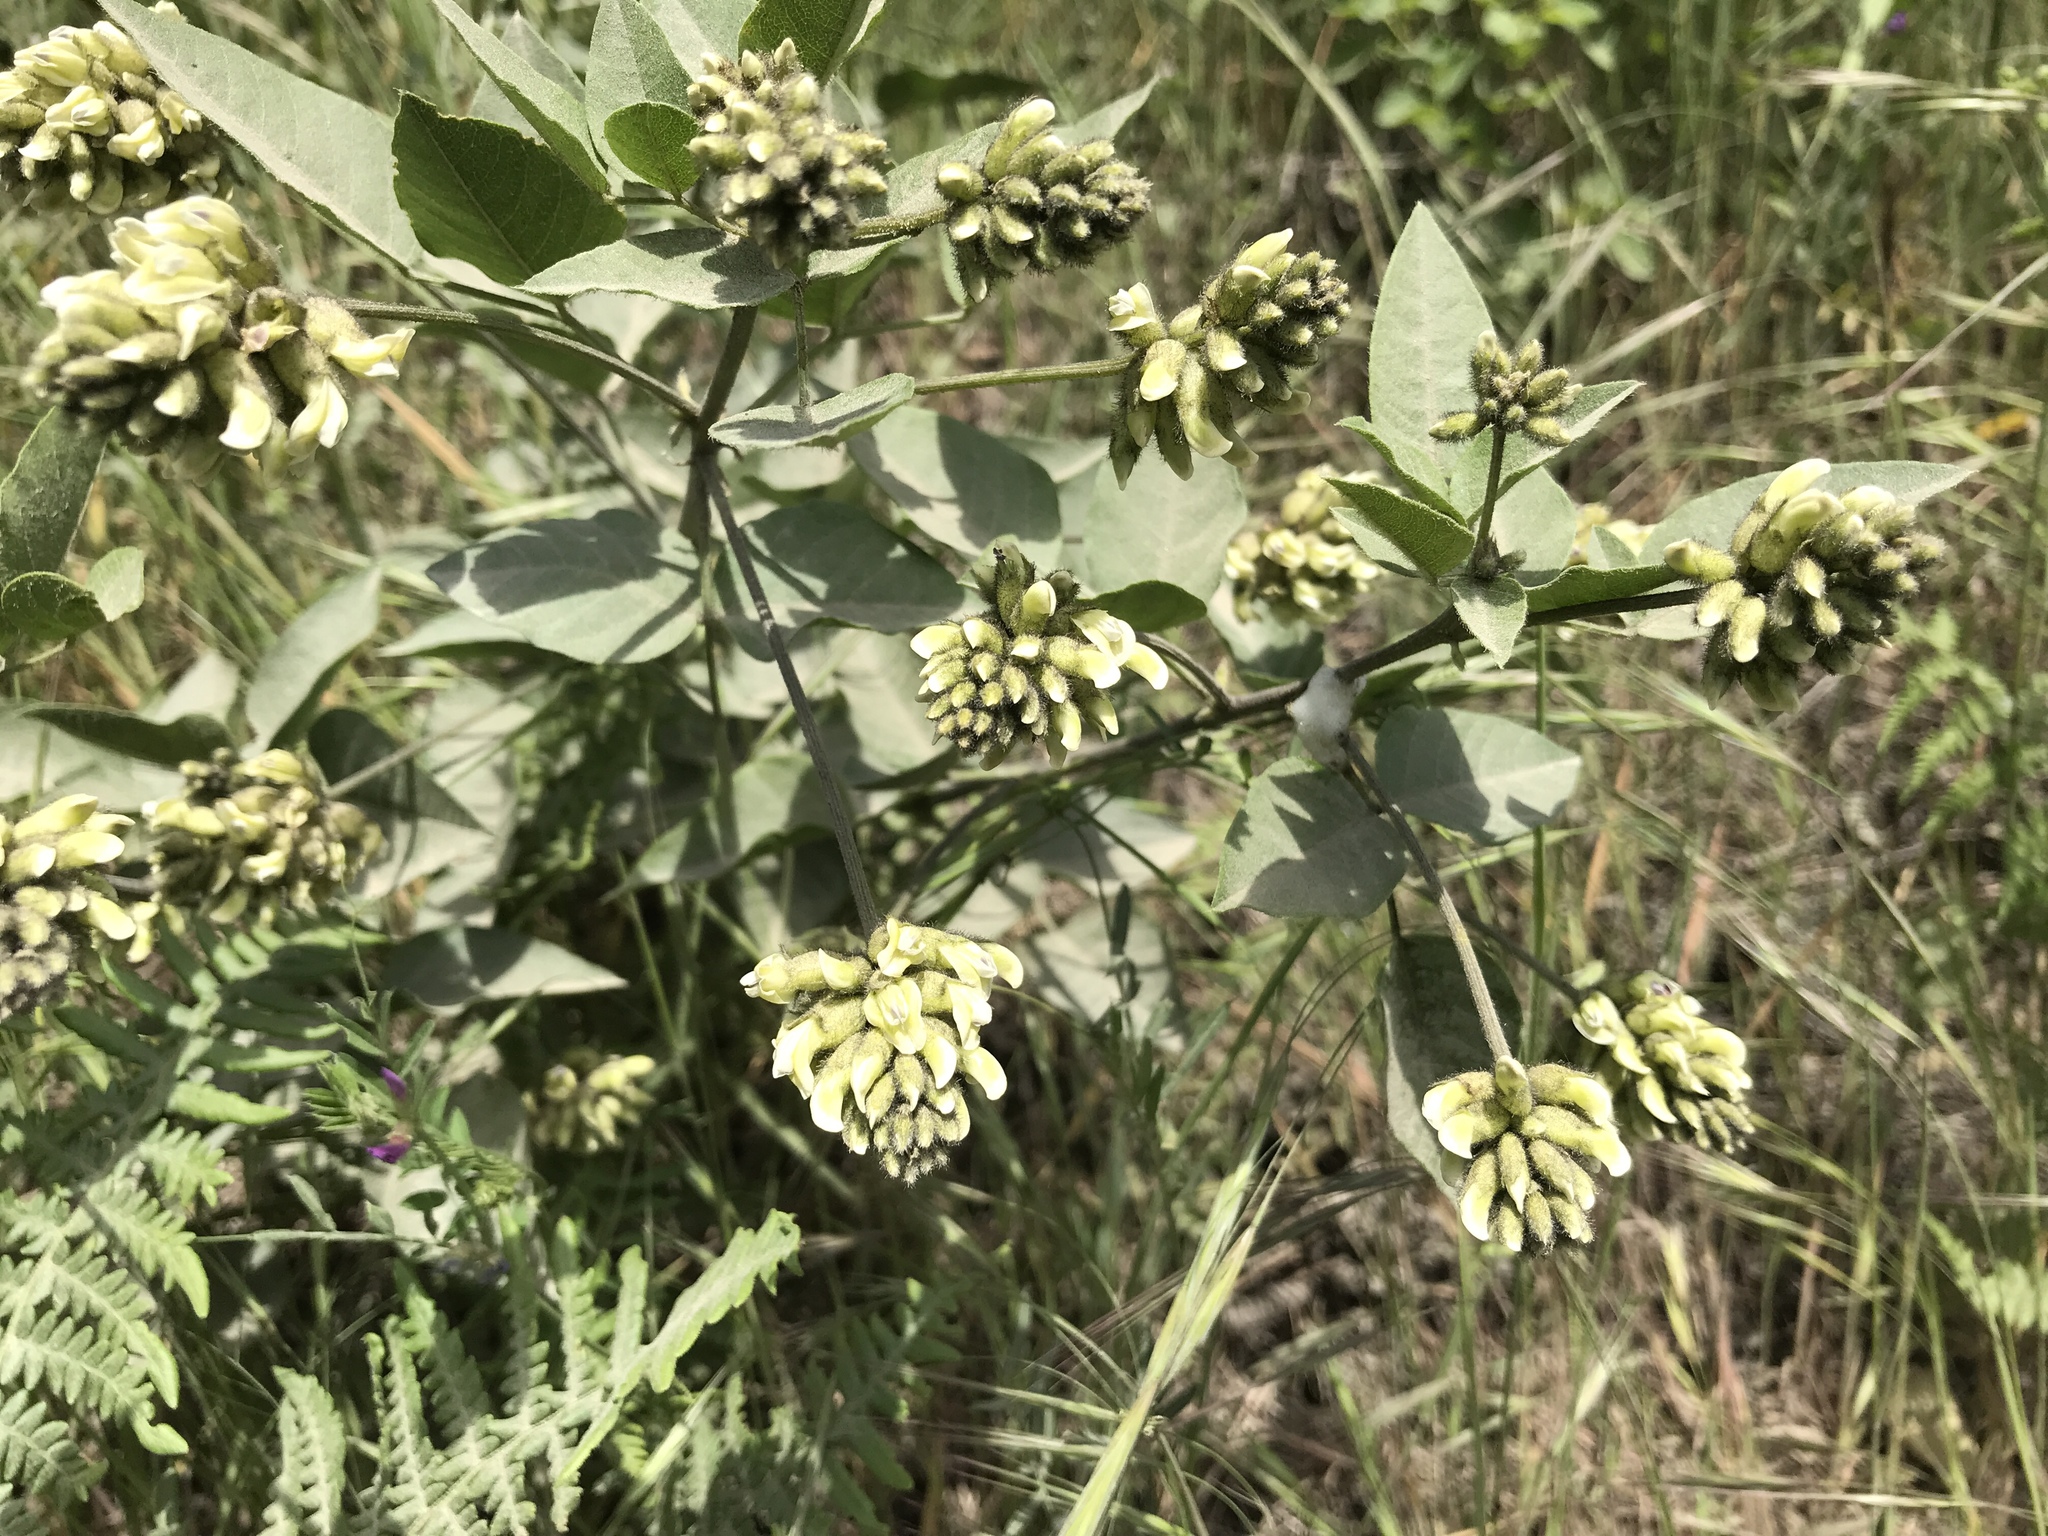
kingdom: Plantae
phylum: Tracheophyta
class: Magnoliopsida
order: Fabales
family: Fabaceae
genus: Rupertia
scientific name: Rupertia physodes
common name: California-tea
